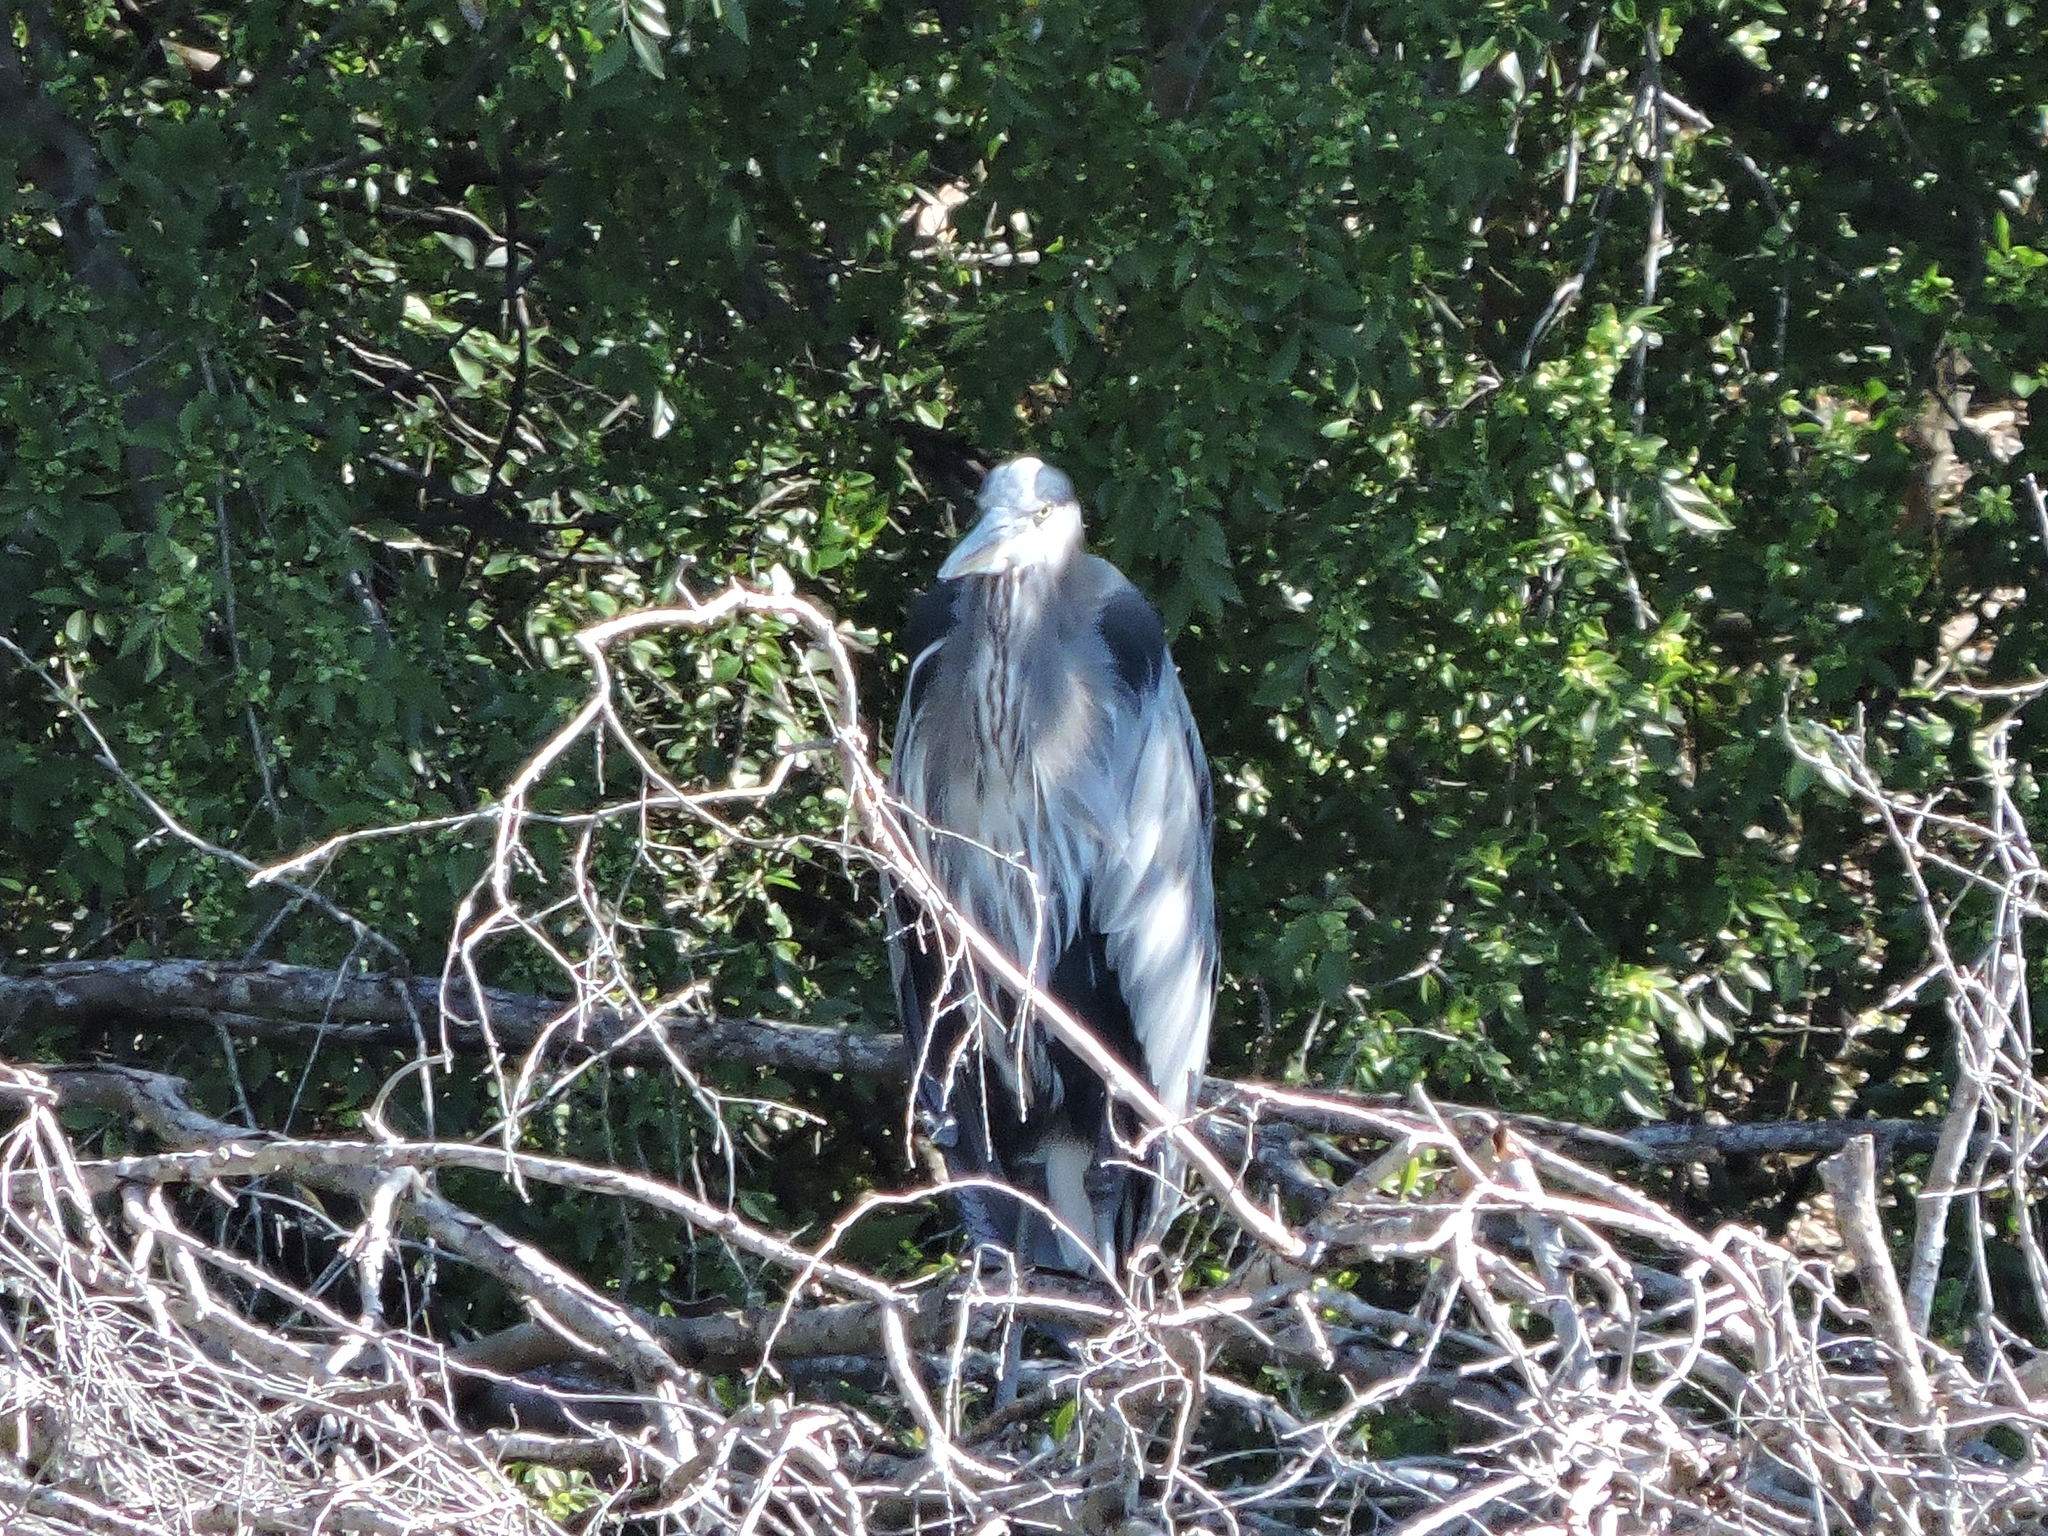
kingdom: Animalia
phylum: Chordata
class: Aves
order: Pelecaniformes
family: Ardeidae
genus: Ardea
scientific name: Ardea herodias
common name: Great blue heron
